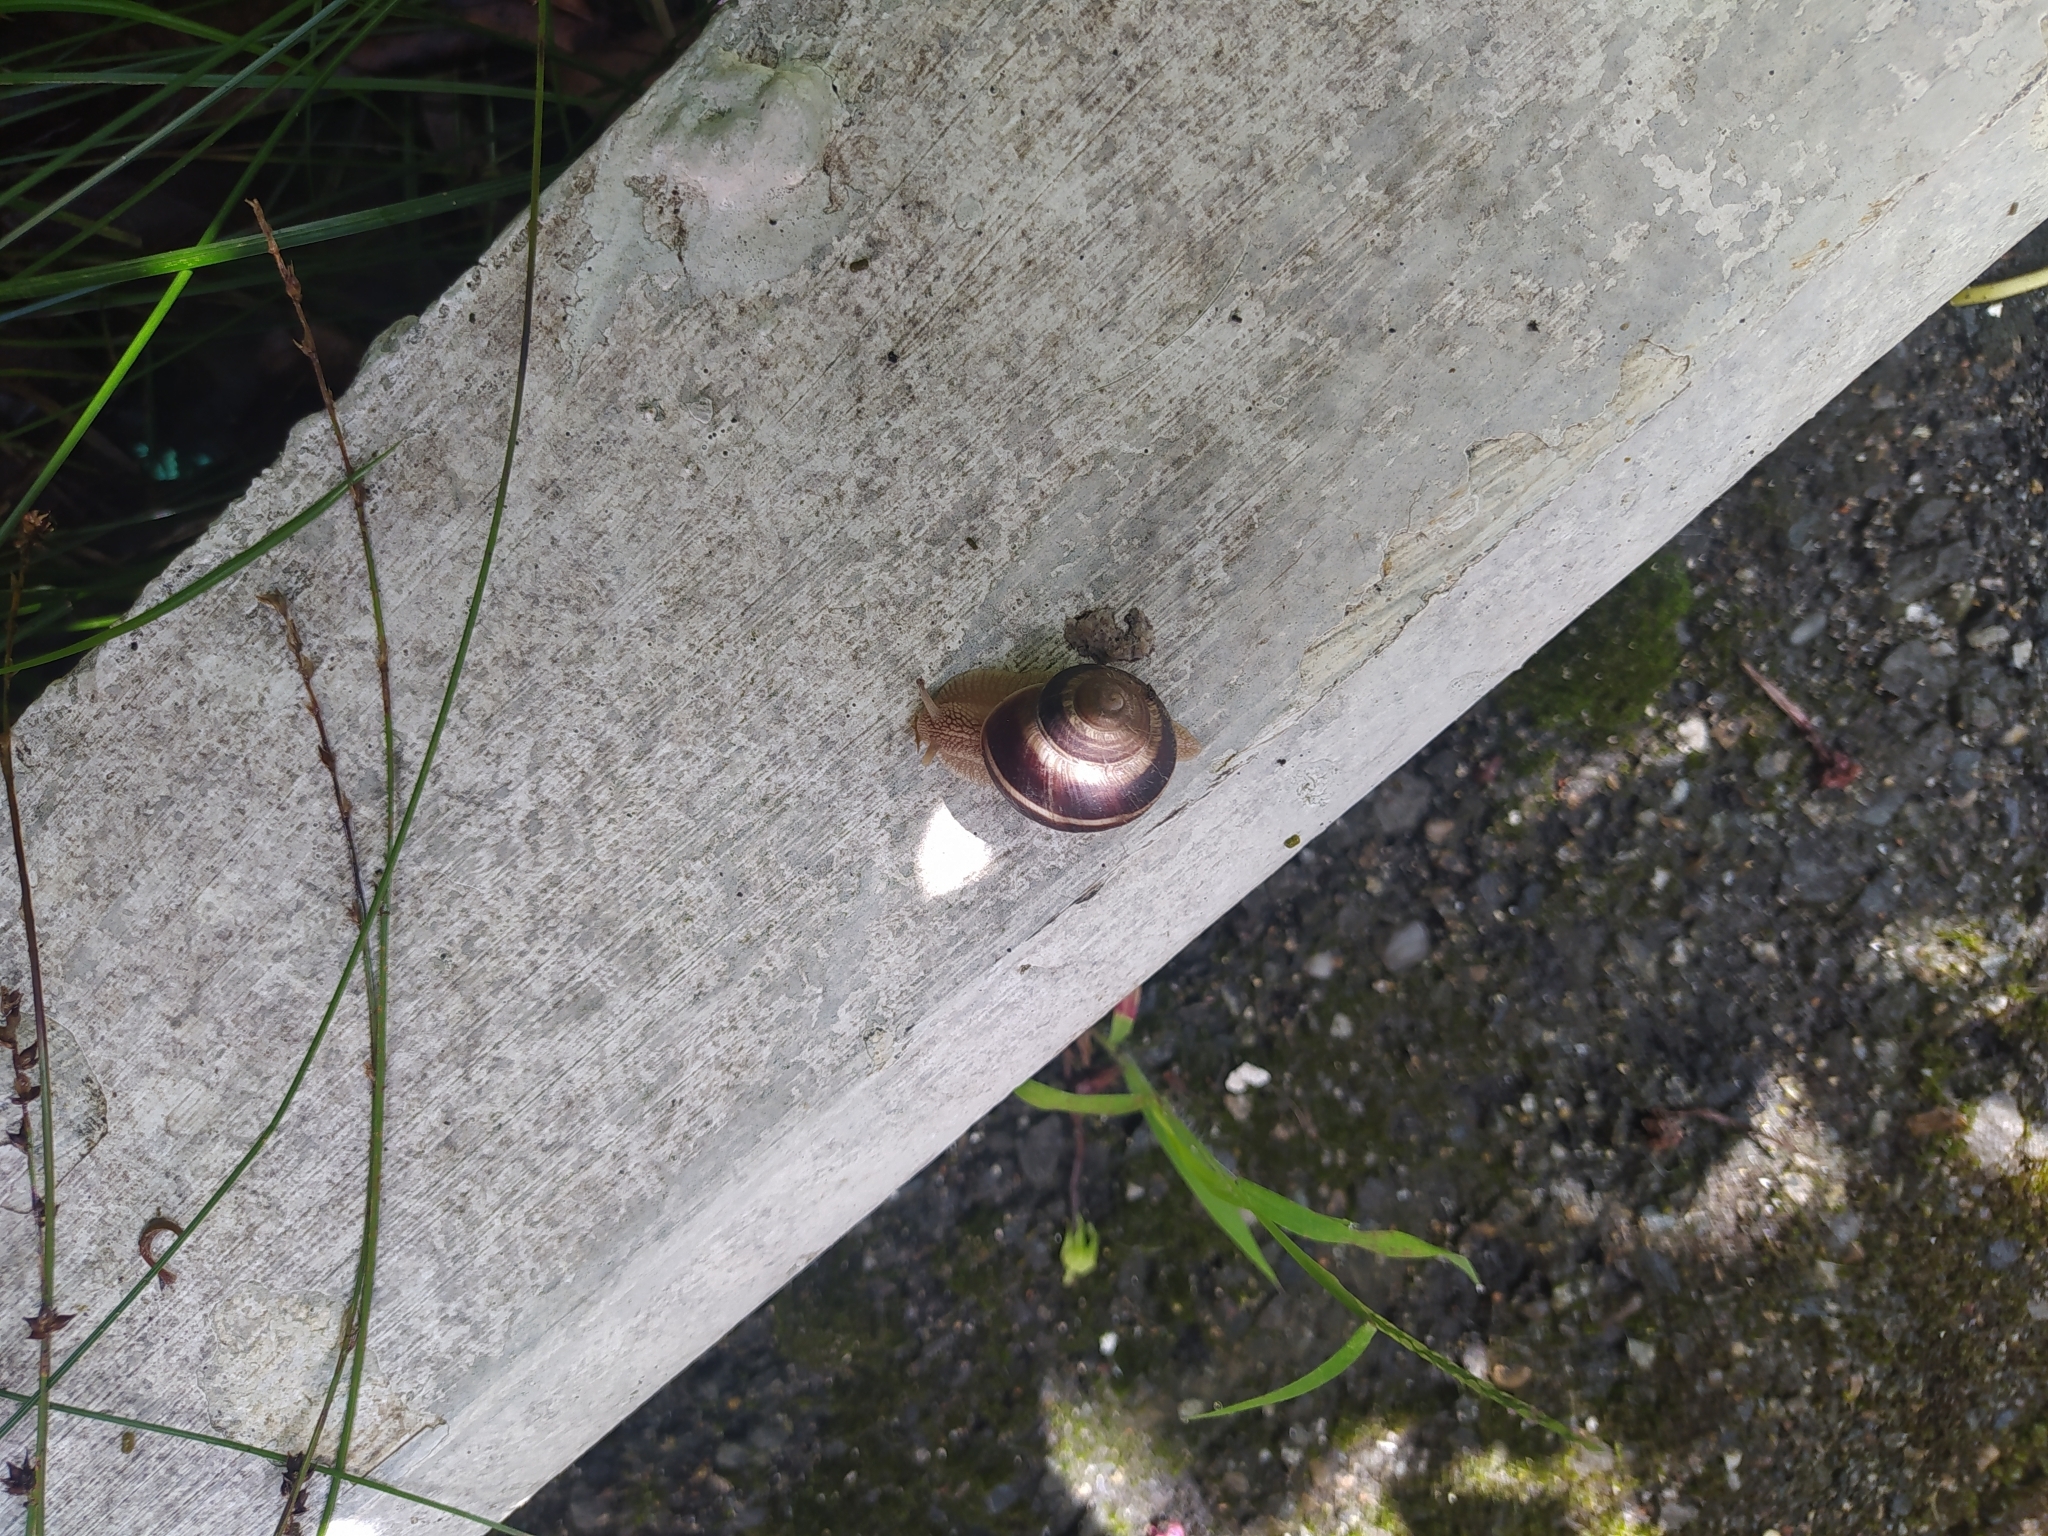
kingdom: Animalia
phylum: Mollusca
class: Gastropoda
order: Stylommatophora
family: Helicidae
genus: Helix
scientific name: Helix lucorum
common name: Turkish snail
